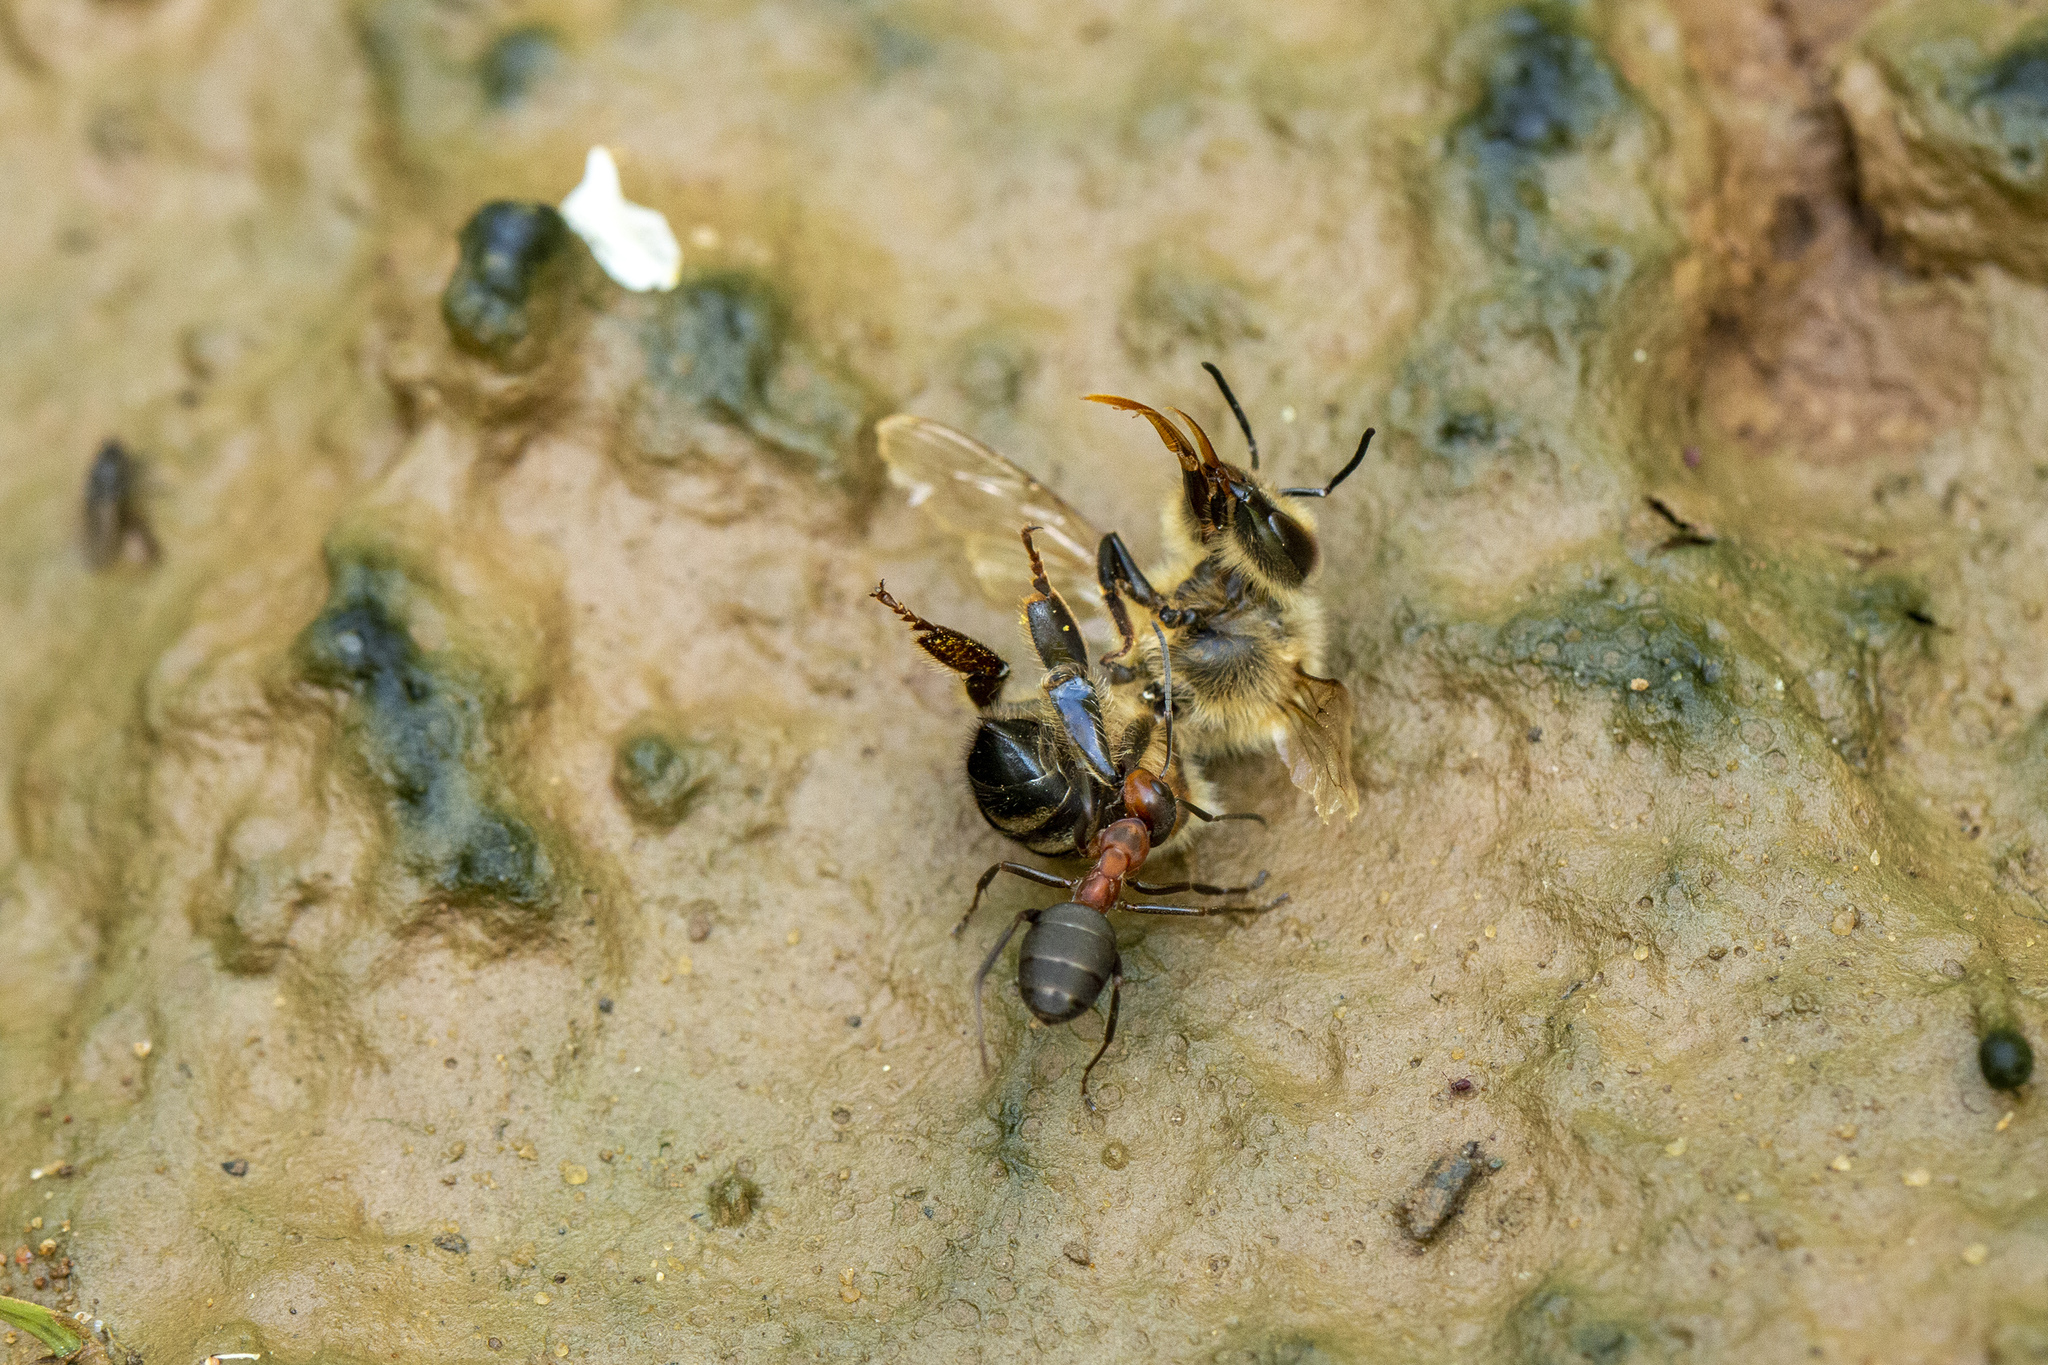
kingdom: Animalia
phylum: Arthropoda
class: Insecta
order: Hymenoptera
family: Apidae
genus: Apis
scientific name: Apis mellifera
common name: Honey bee
